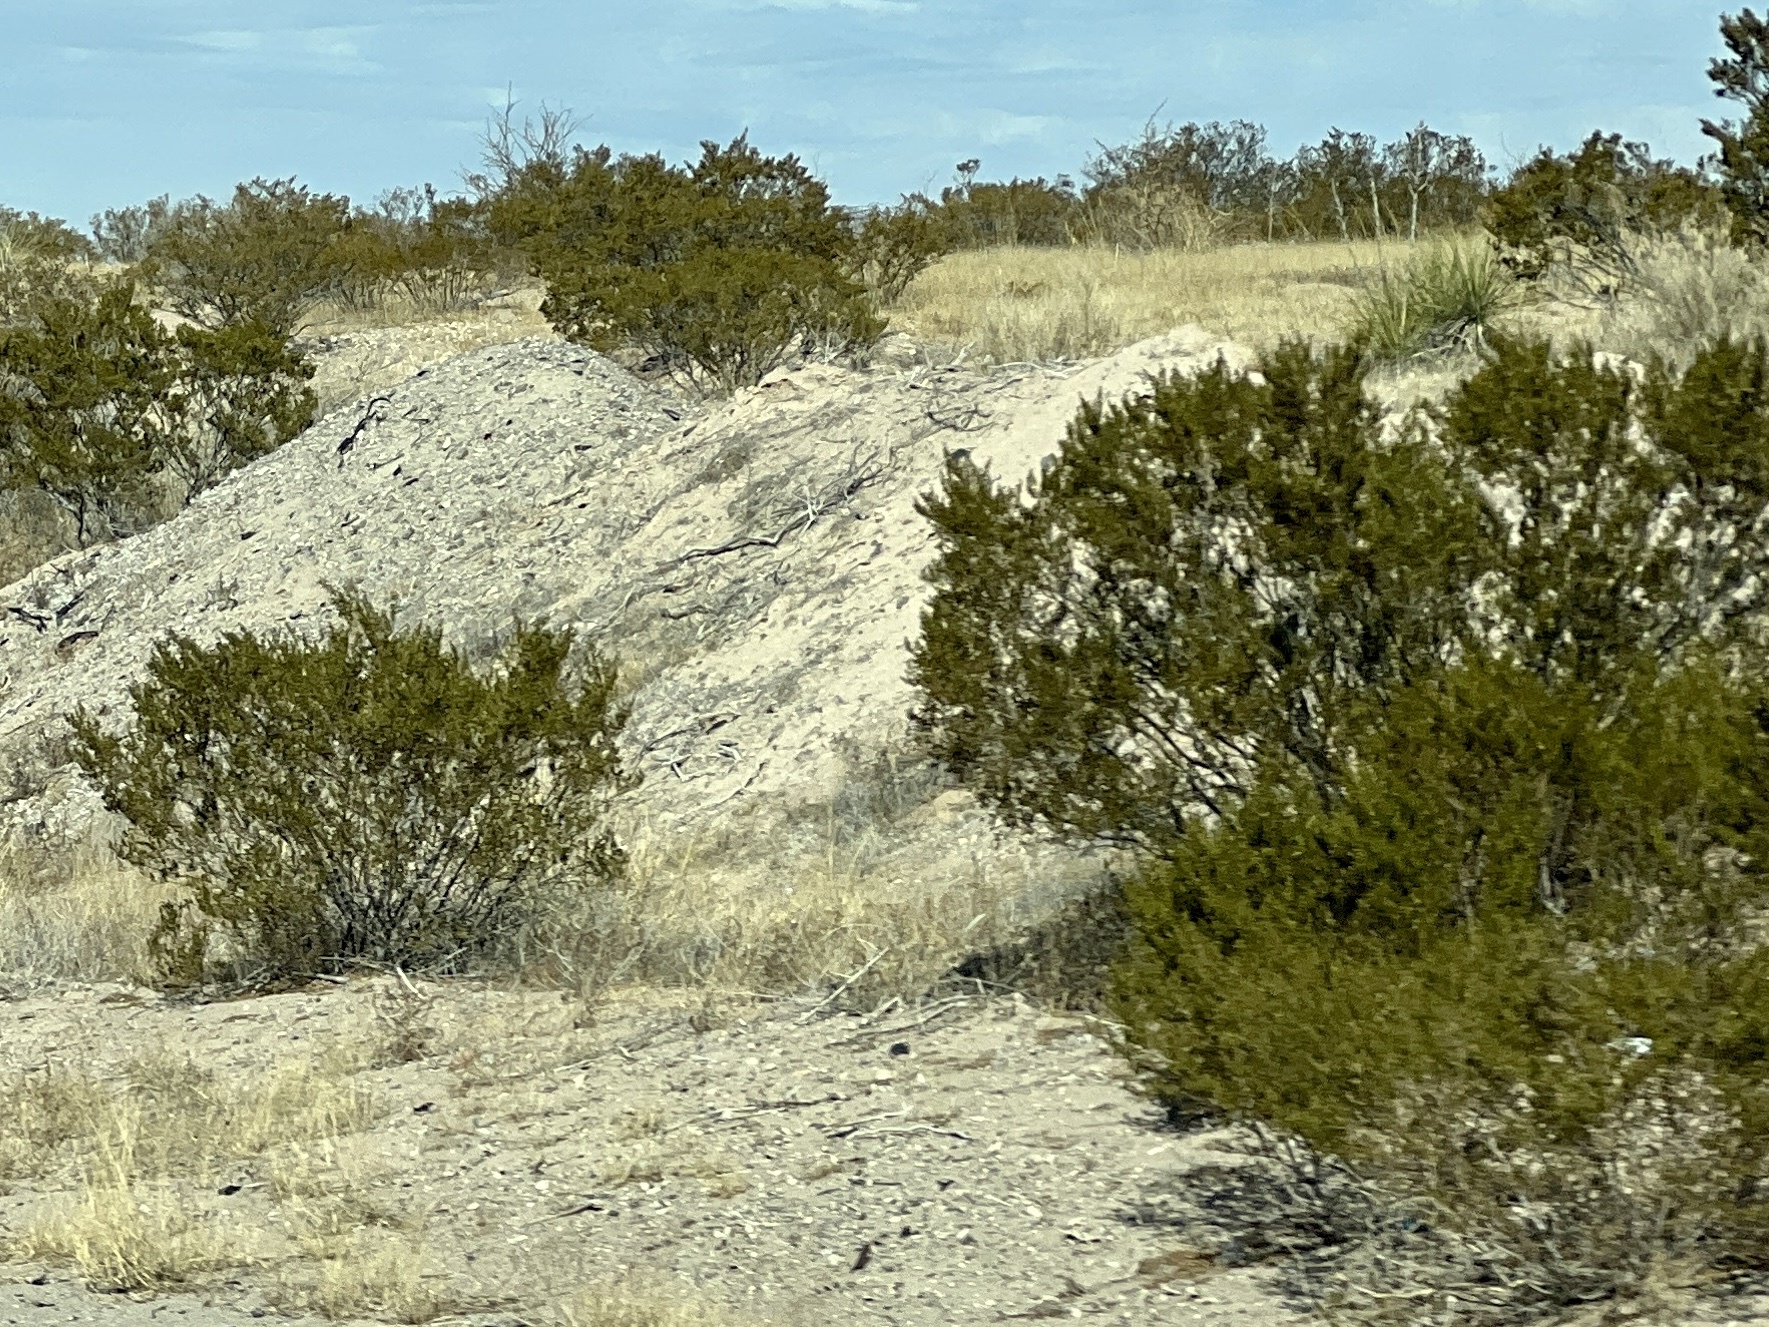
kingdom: Plantae
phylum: Tracheophyta
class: Magnoliopsida
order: Zygophyllales
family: Zygophyllaceae
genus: Larrea
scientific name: Larrea tridentata
